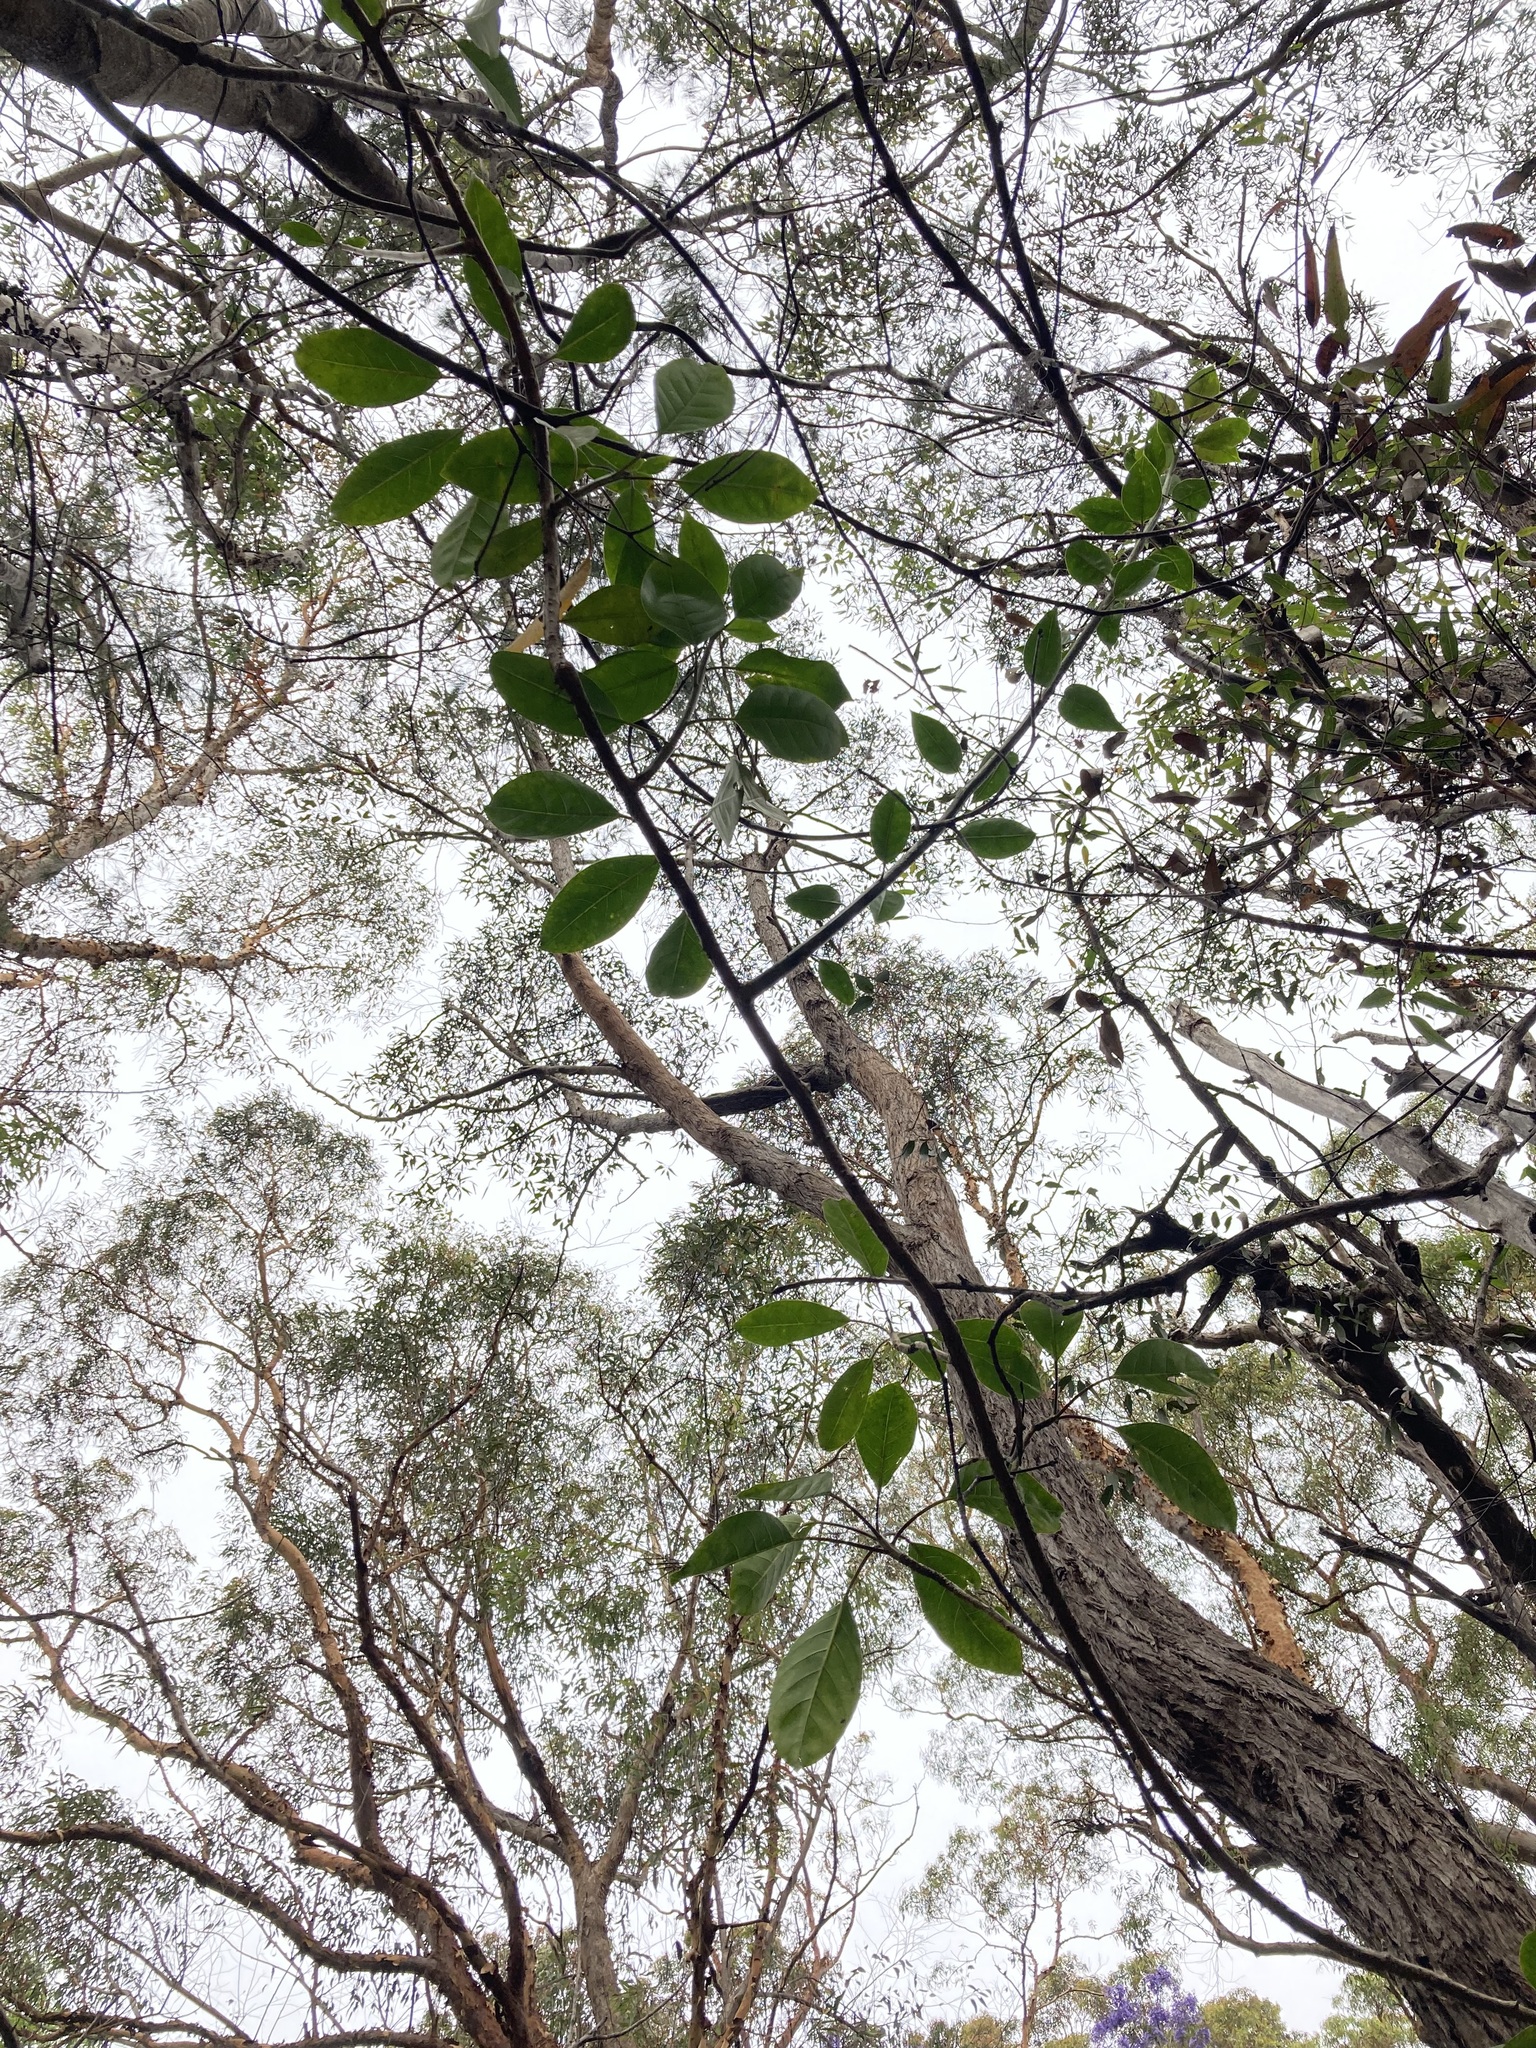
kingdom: Plantae
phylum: Tracheophyta
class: Magnoliopsida
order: Solanales
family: Solanaceae
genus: Solandra
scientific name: Solandra maxima
